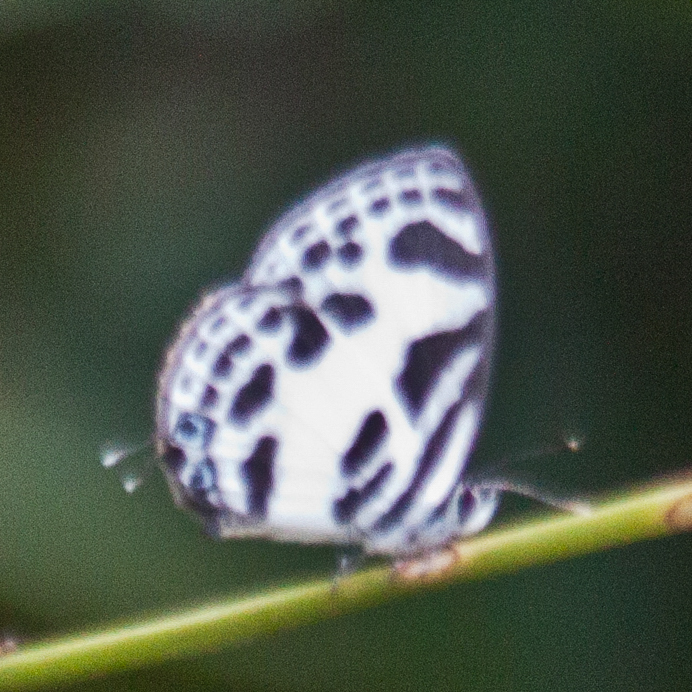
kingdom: Animalia
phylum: Arthropoda
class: Insecta
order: Lepidoptera
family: Lycaenidae
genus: Discolampa
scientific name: Discolampa ethion
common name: Banded blue pierrot
